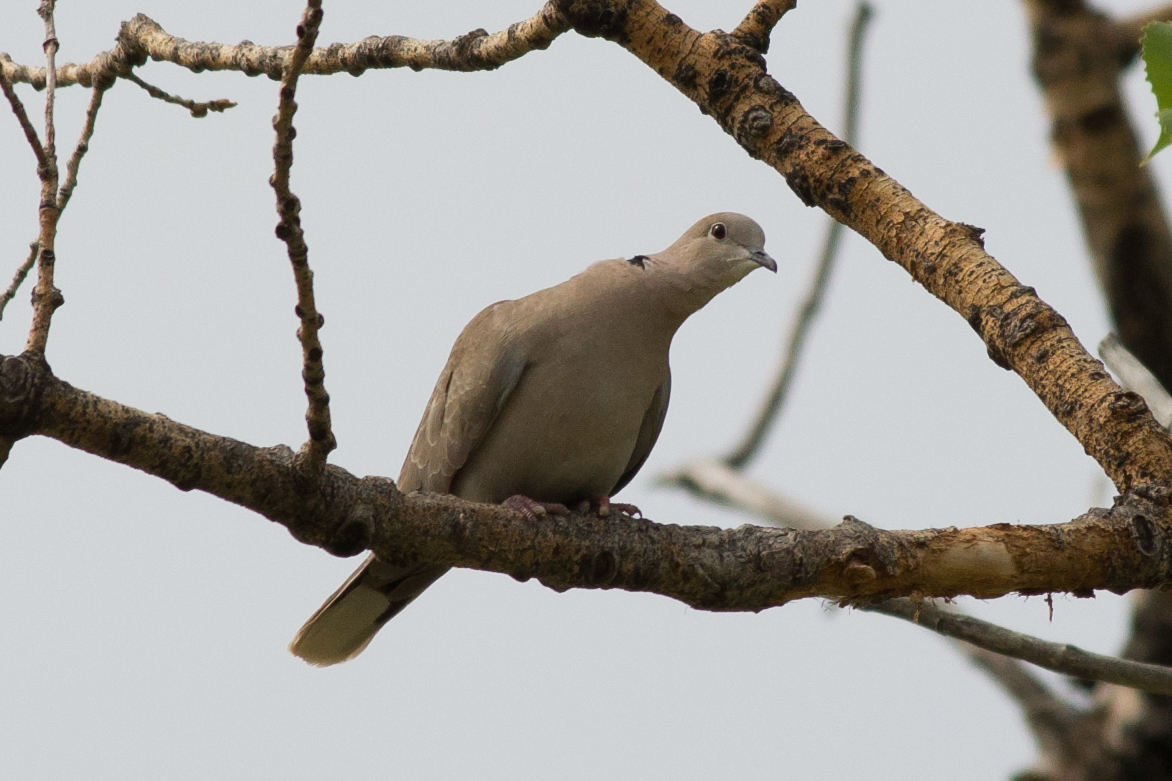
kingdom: Animalia
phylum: Chordata
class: Aves
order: Columbiformes
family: Columbidae
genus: Streptopelia
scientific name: Streptopelia decaocto
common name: Eurasian collared dove
